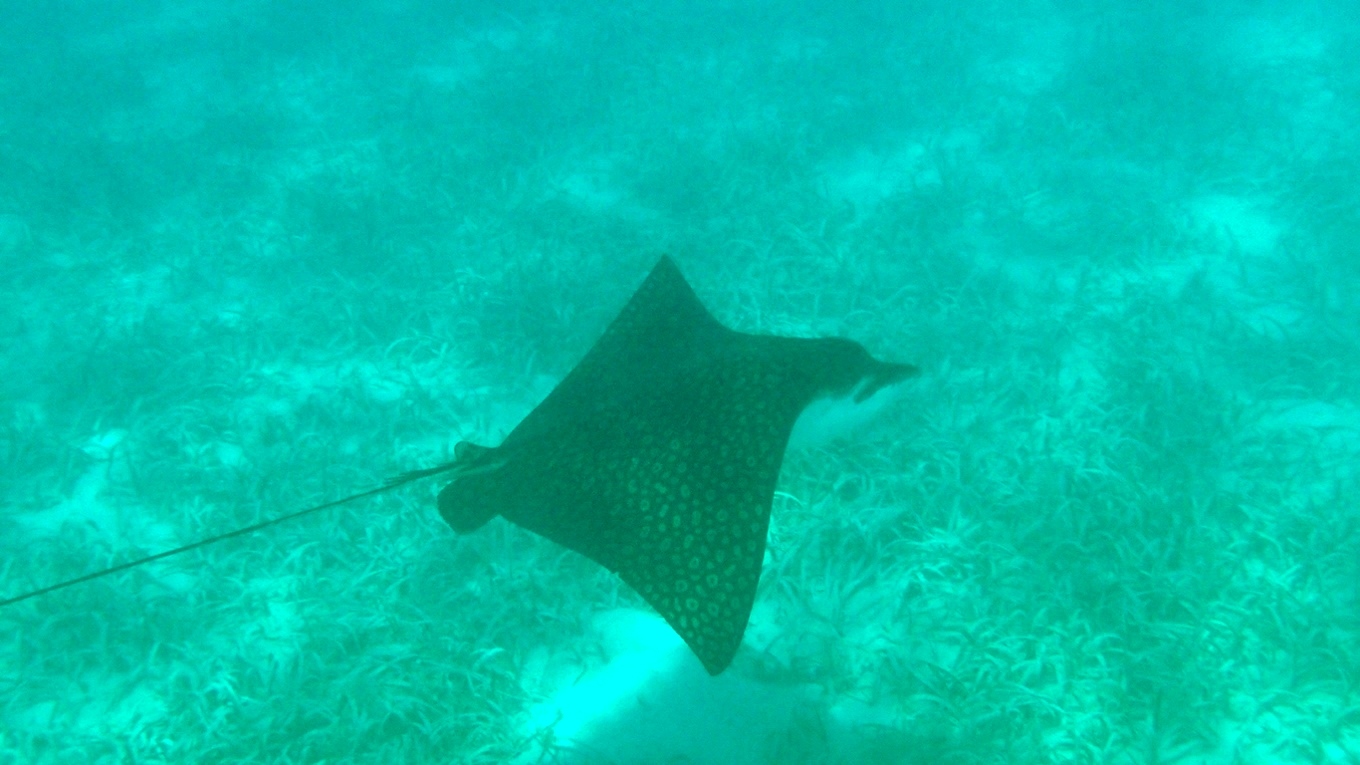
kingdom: Animalia
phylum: Chordata
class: Elasmobranchii
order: Myliobatiformes
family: Myliobatidae
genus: Aetobatus
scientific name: Aetobatus narinari
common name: Spotted eagle ray
